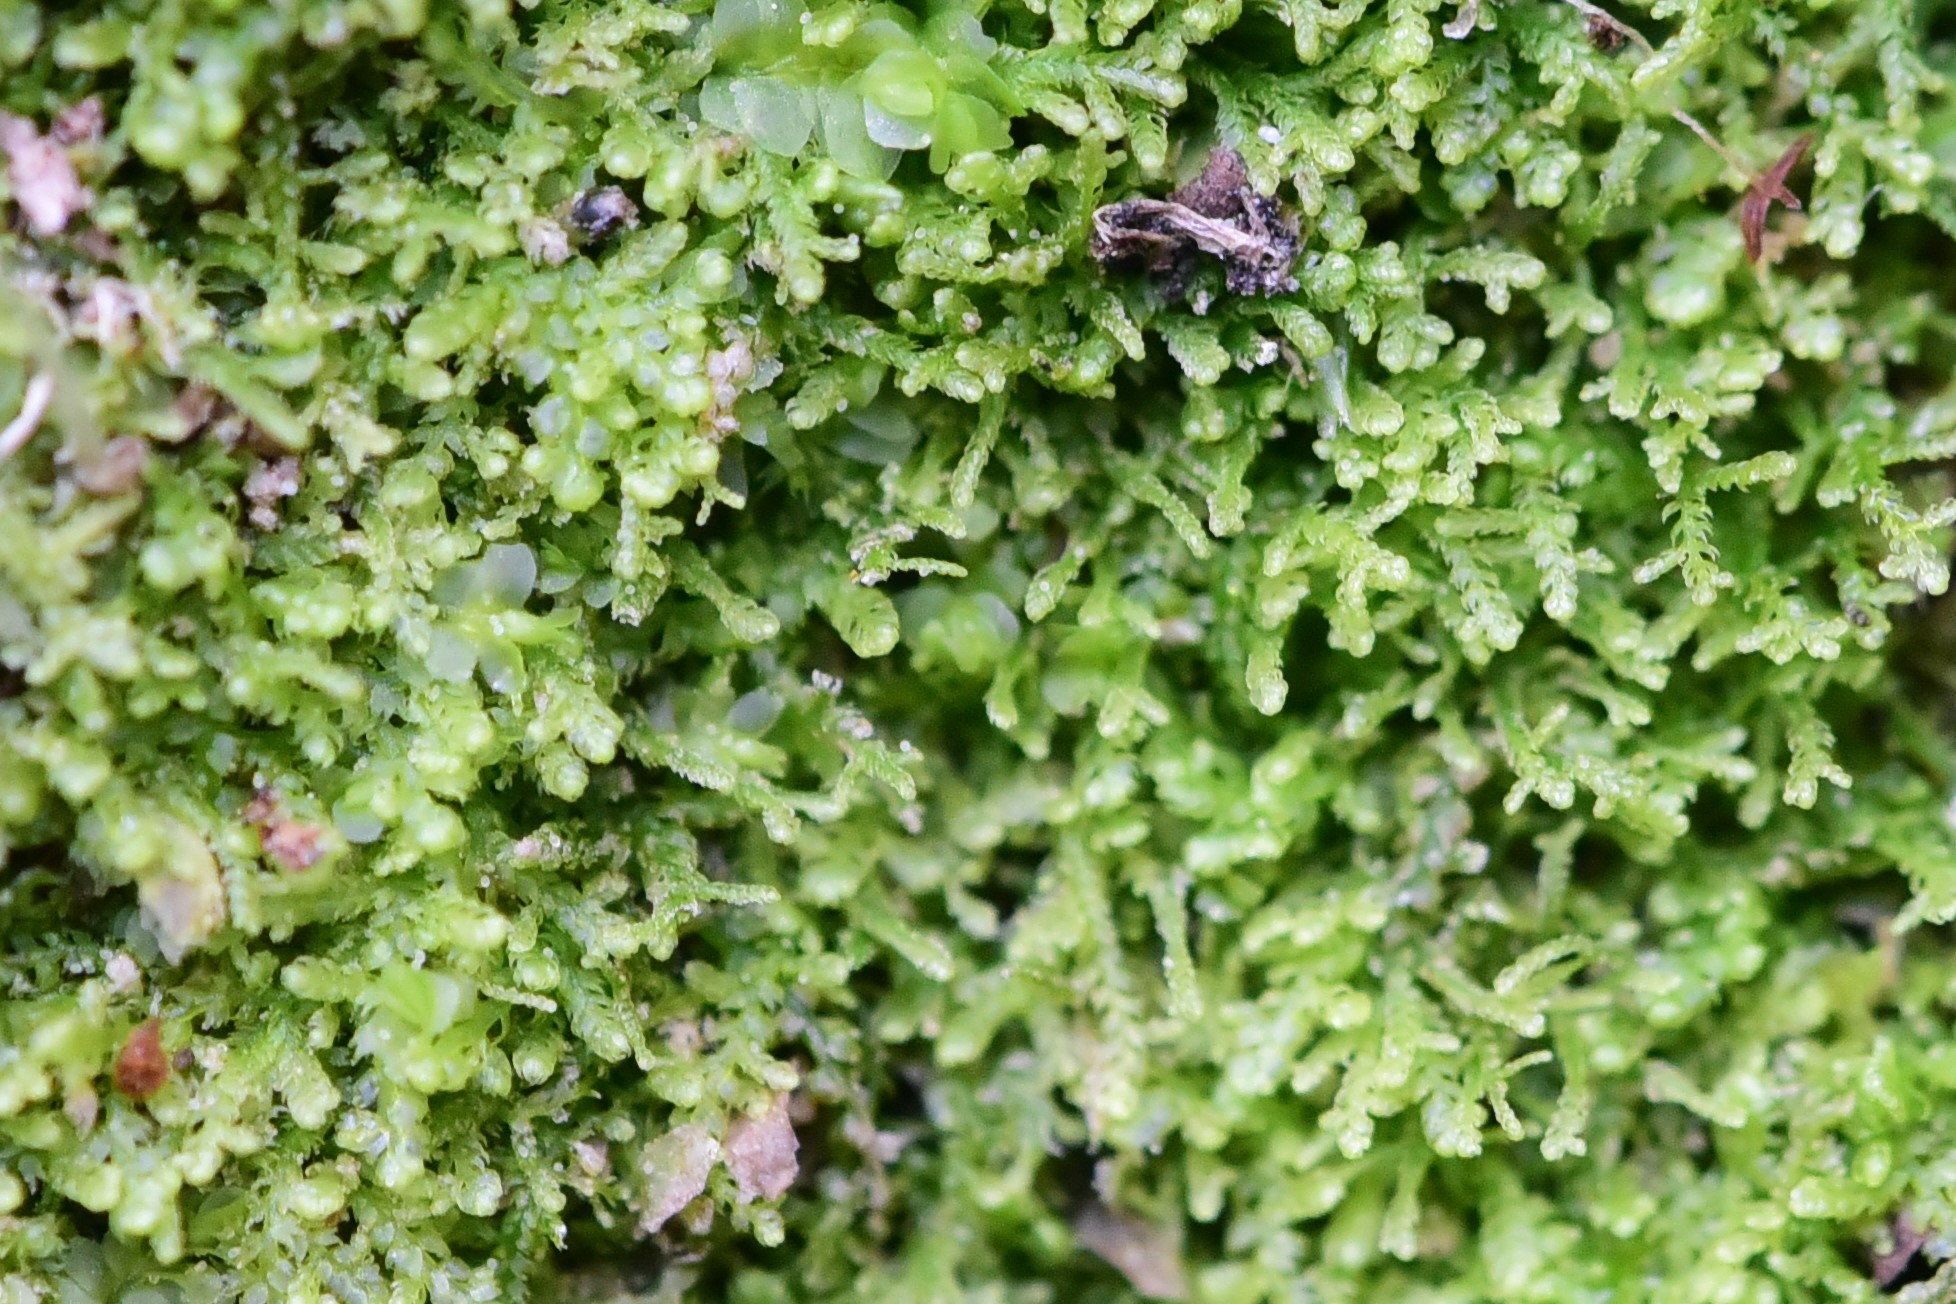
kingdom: Plantae
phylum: Marchantiophyta
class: Jungermanniopsida
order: Jungermanniales
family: Lepidoziaceae
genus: Lepidozia
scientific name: Lepidozia reptans
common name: Creeping fingerwort
